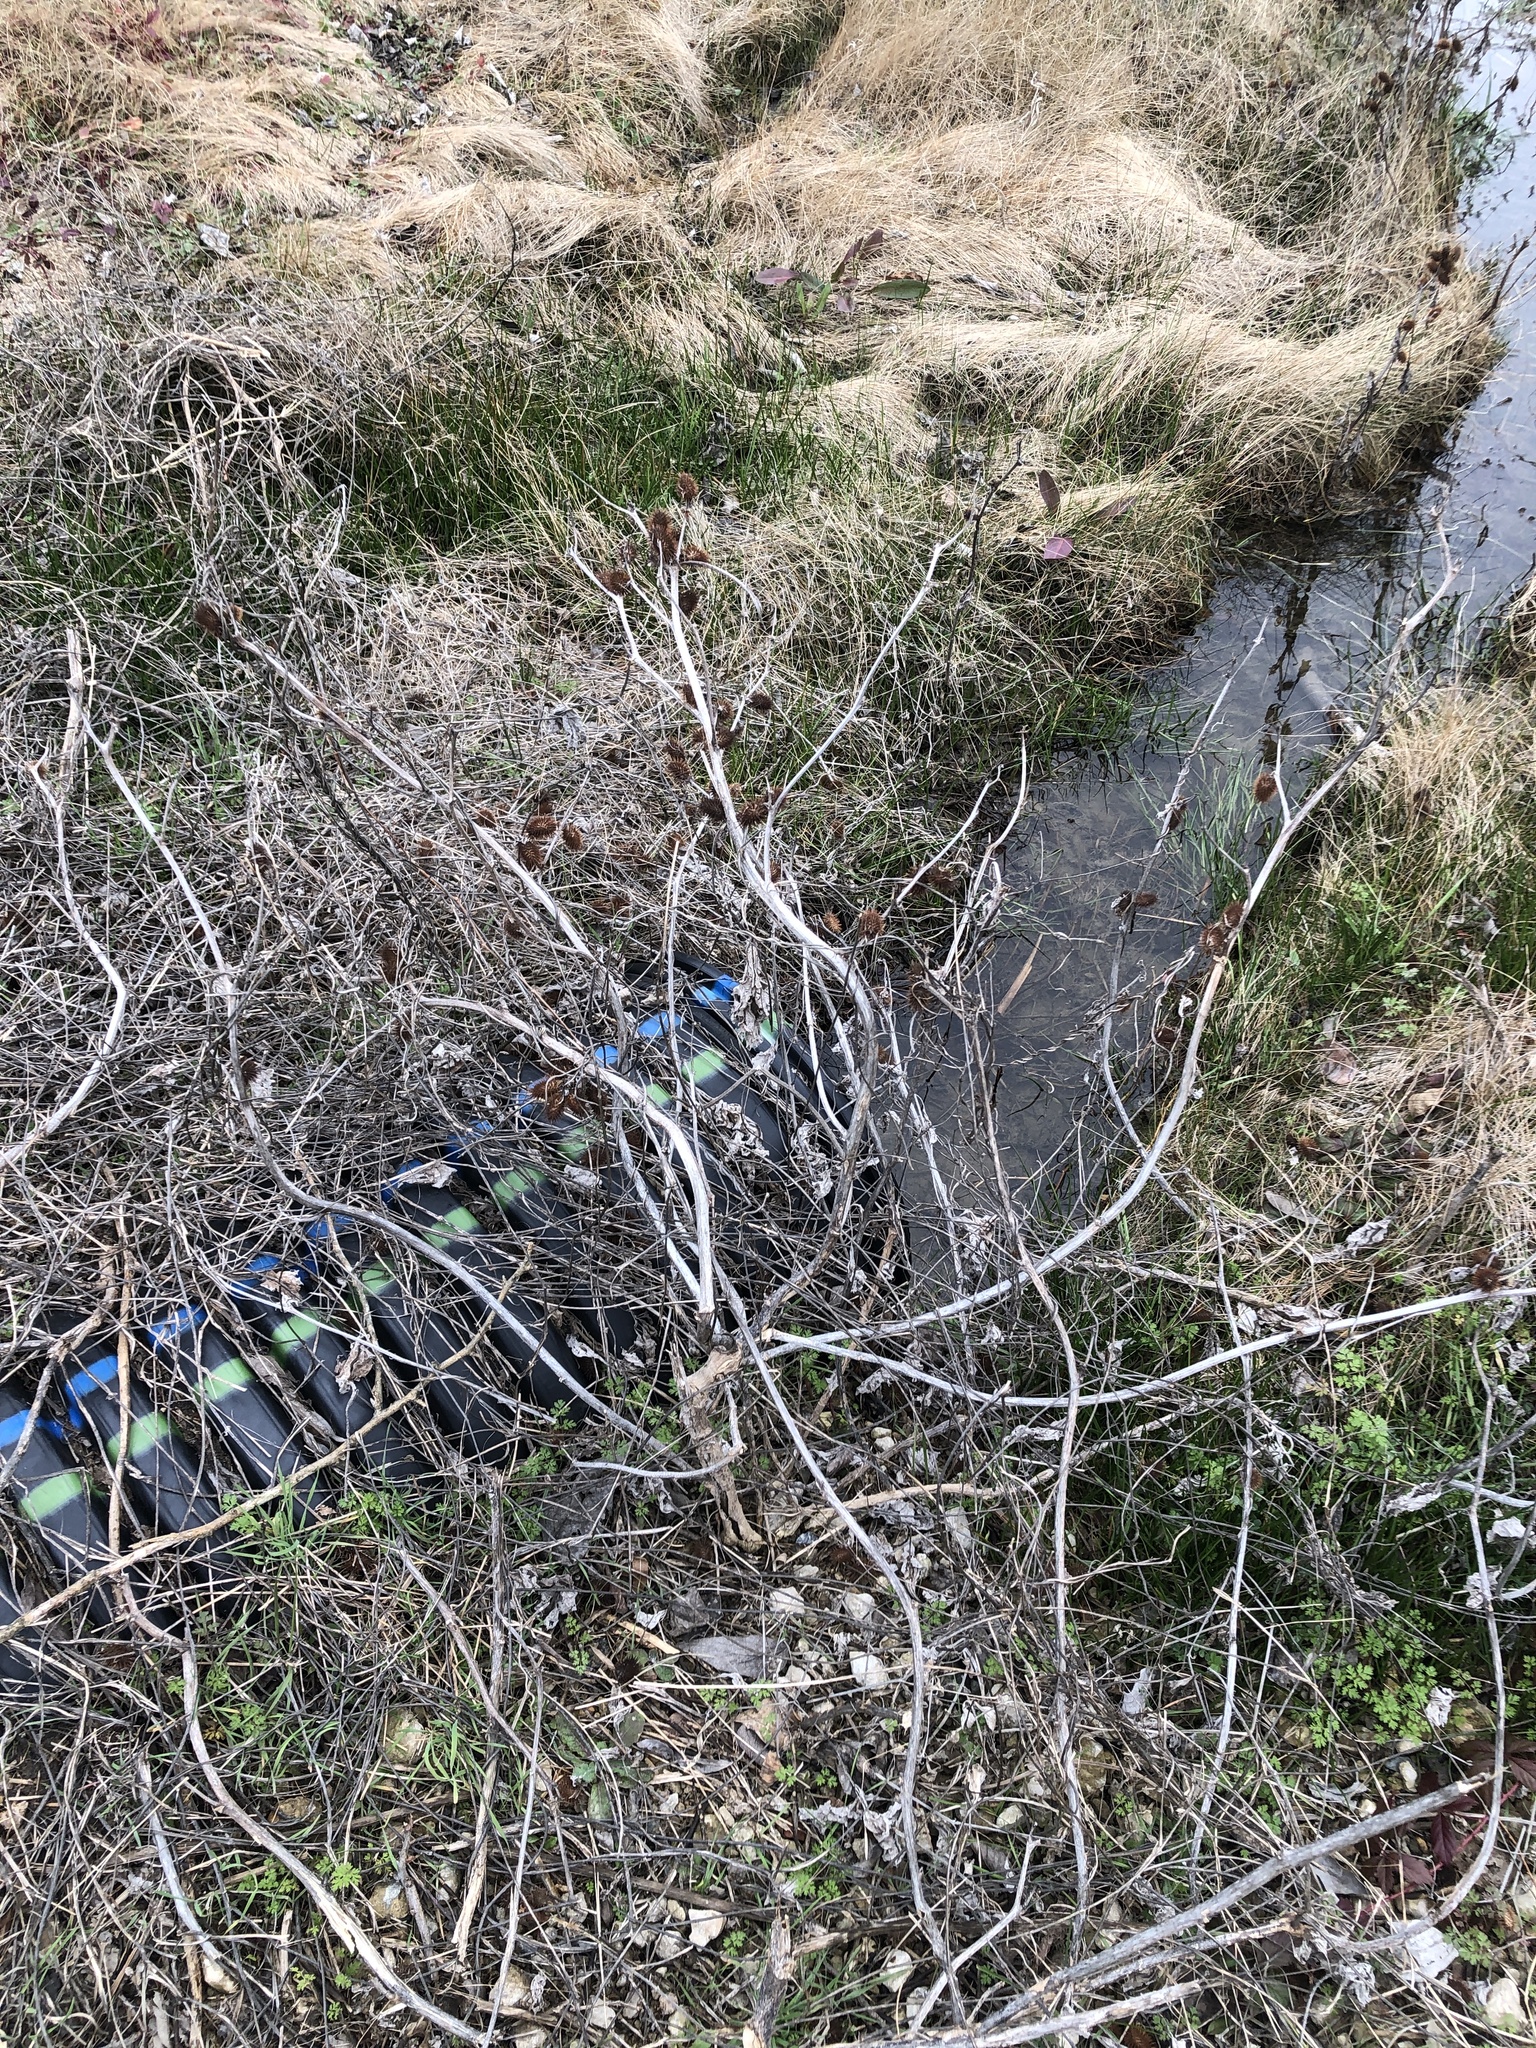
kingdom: Plantae
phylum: Tracheophyta
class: Magnoliopsida
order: Asterales
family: Asteraceae
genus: Xanthium
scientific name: Xanthium strumarium
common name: Rough cocklebur
